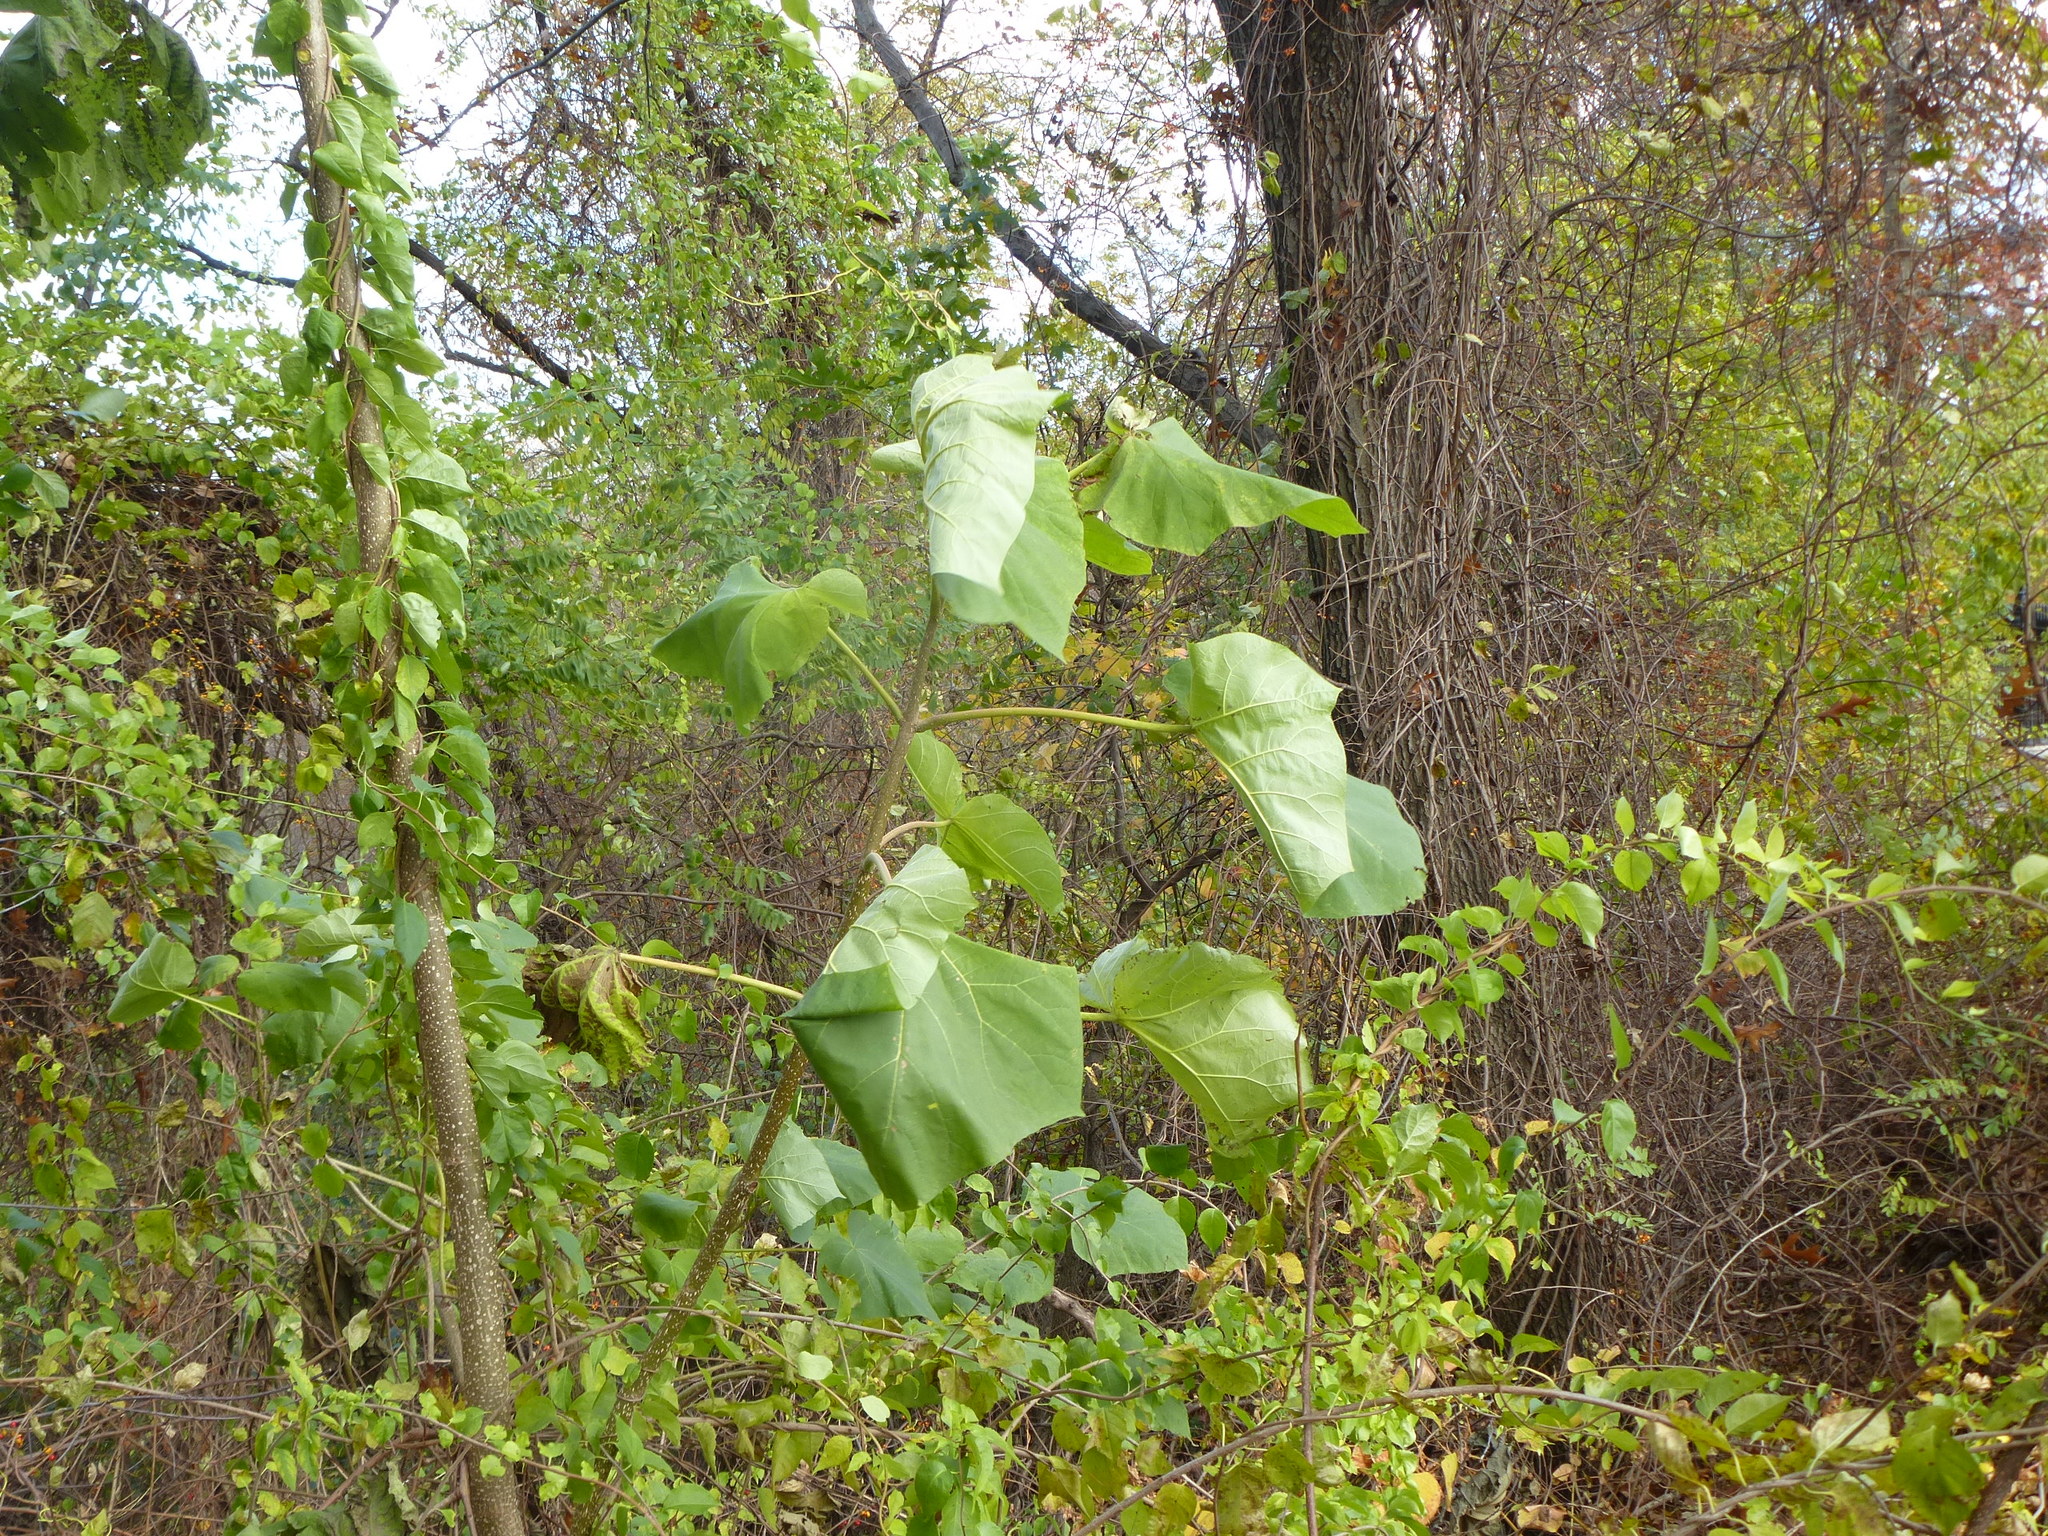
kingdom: Plantae
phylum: Tracheophyta
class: Magnoliopsida
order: Lamiales
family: Paulowniaceae
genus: Paulownia
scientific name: Paulownia tomentosa
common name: Foxglove-tree
